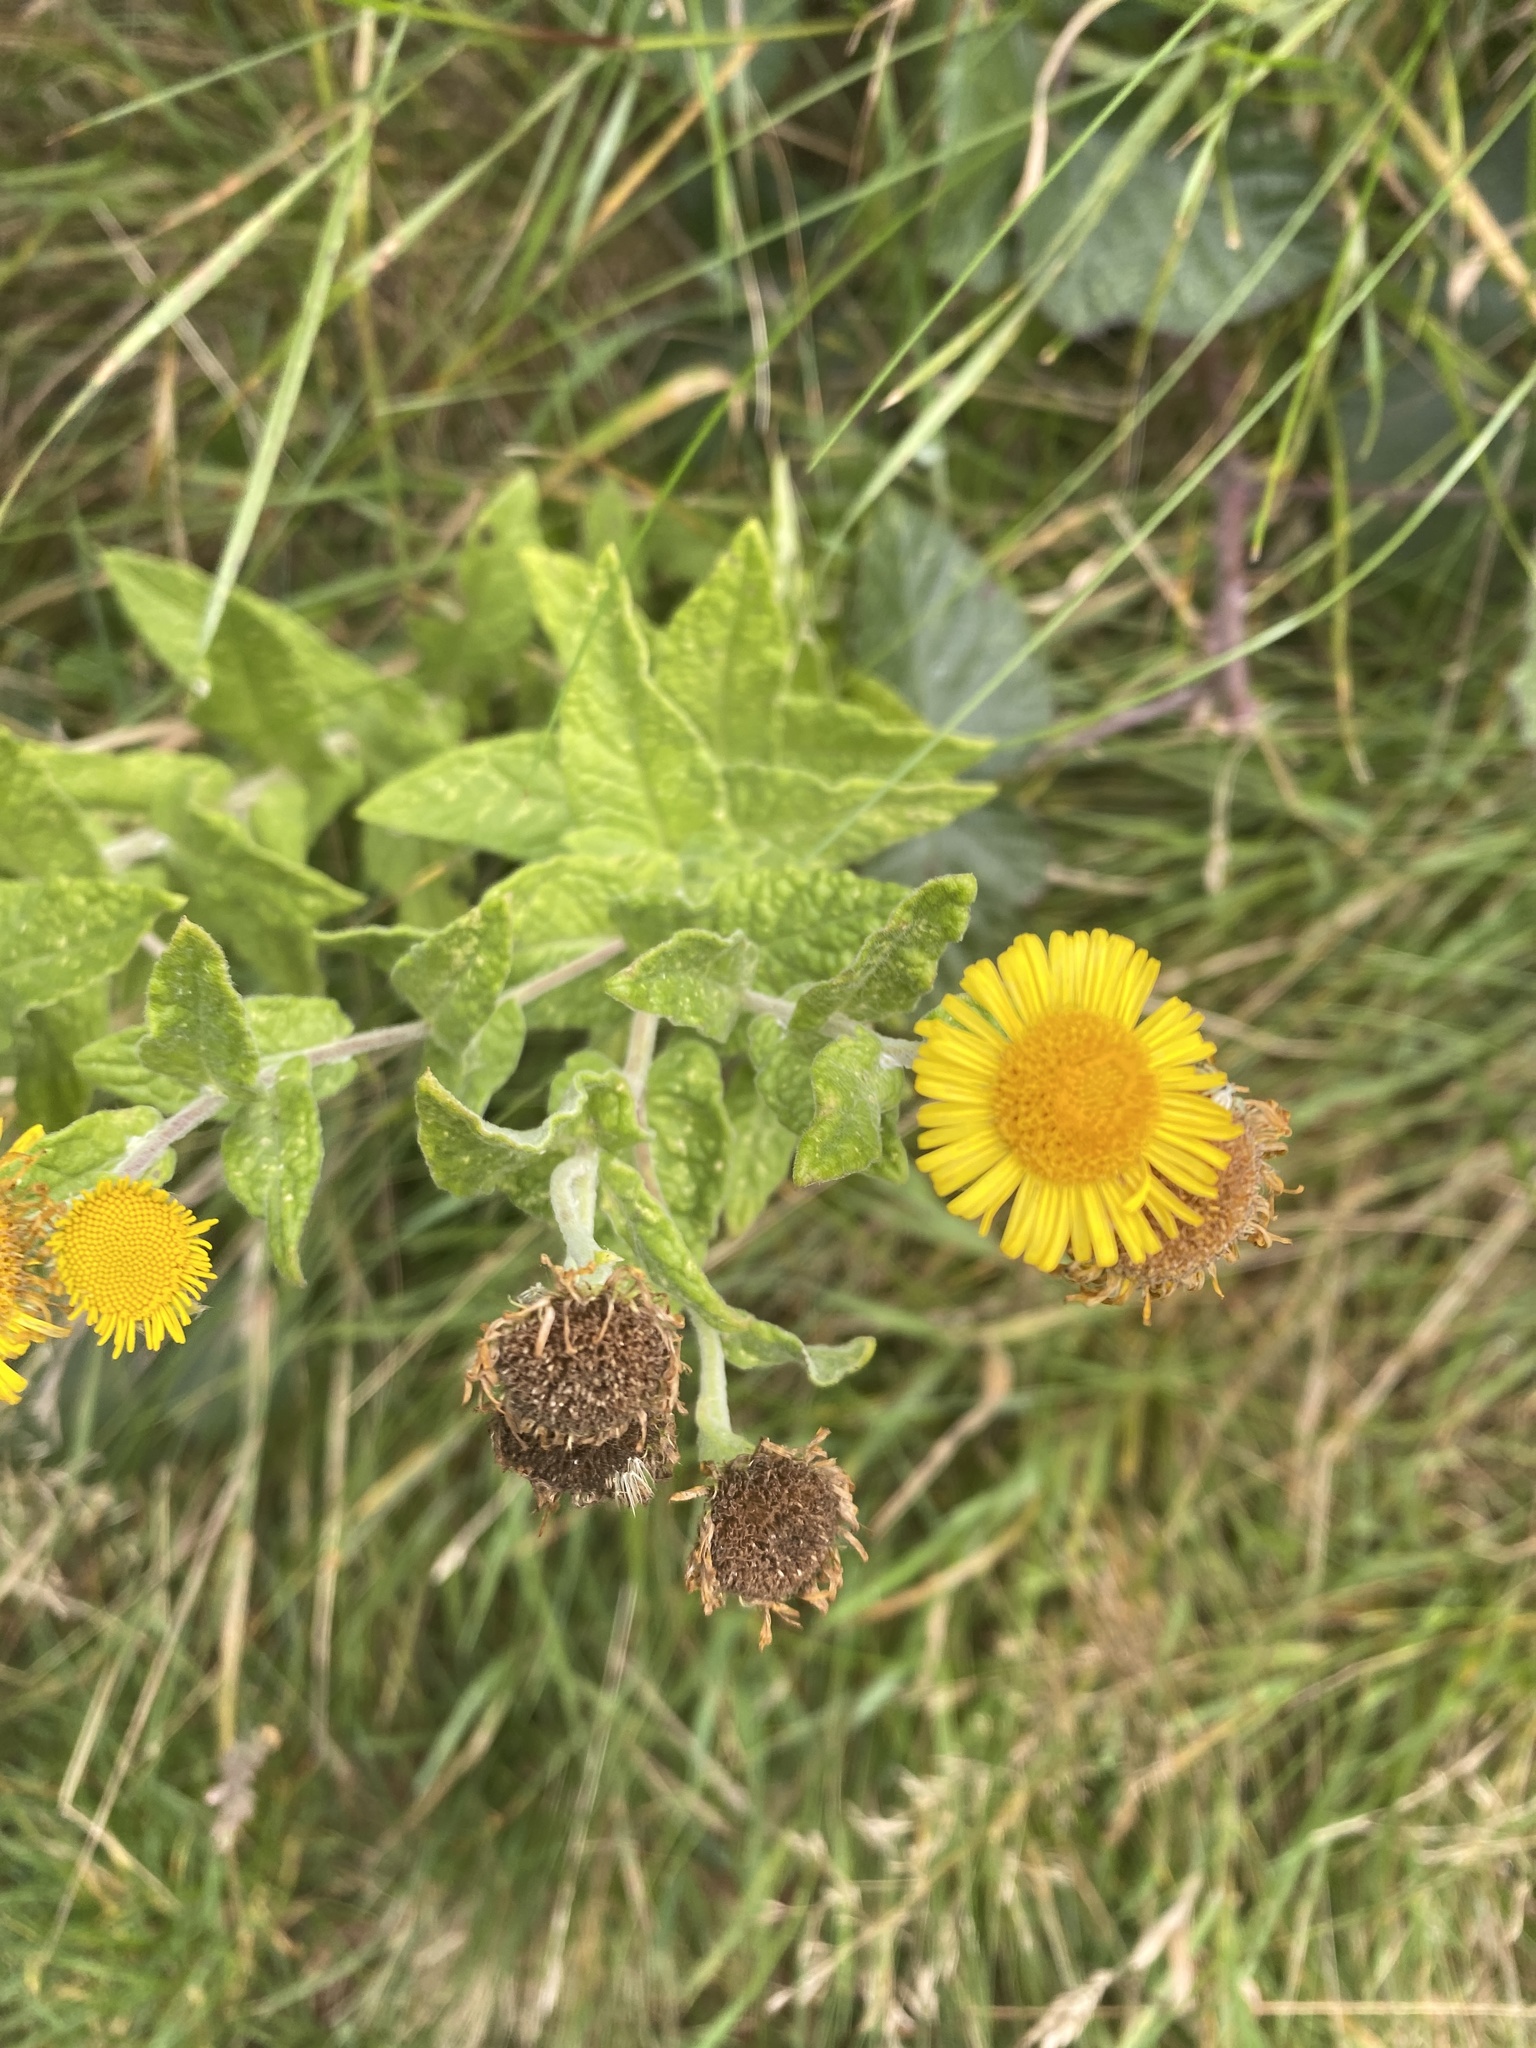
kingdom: Plantae
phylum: Tracheophyta
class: Magnoliopsida
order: Asterales
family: Asteraceae
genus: Pulicaria
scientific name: Pulicaria dysenterica
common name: Common fleabane
